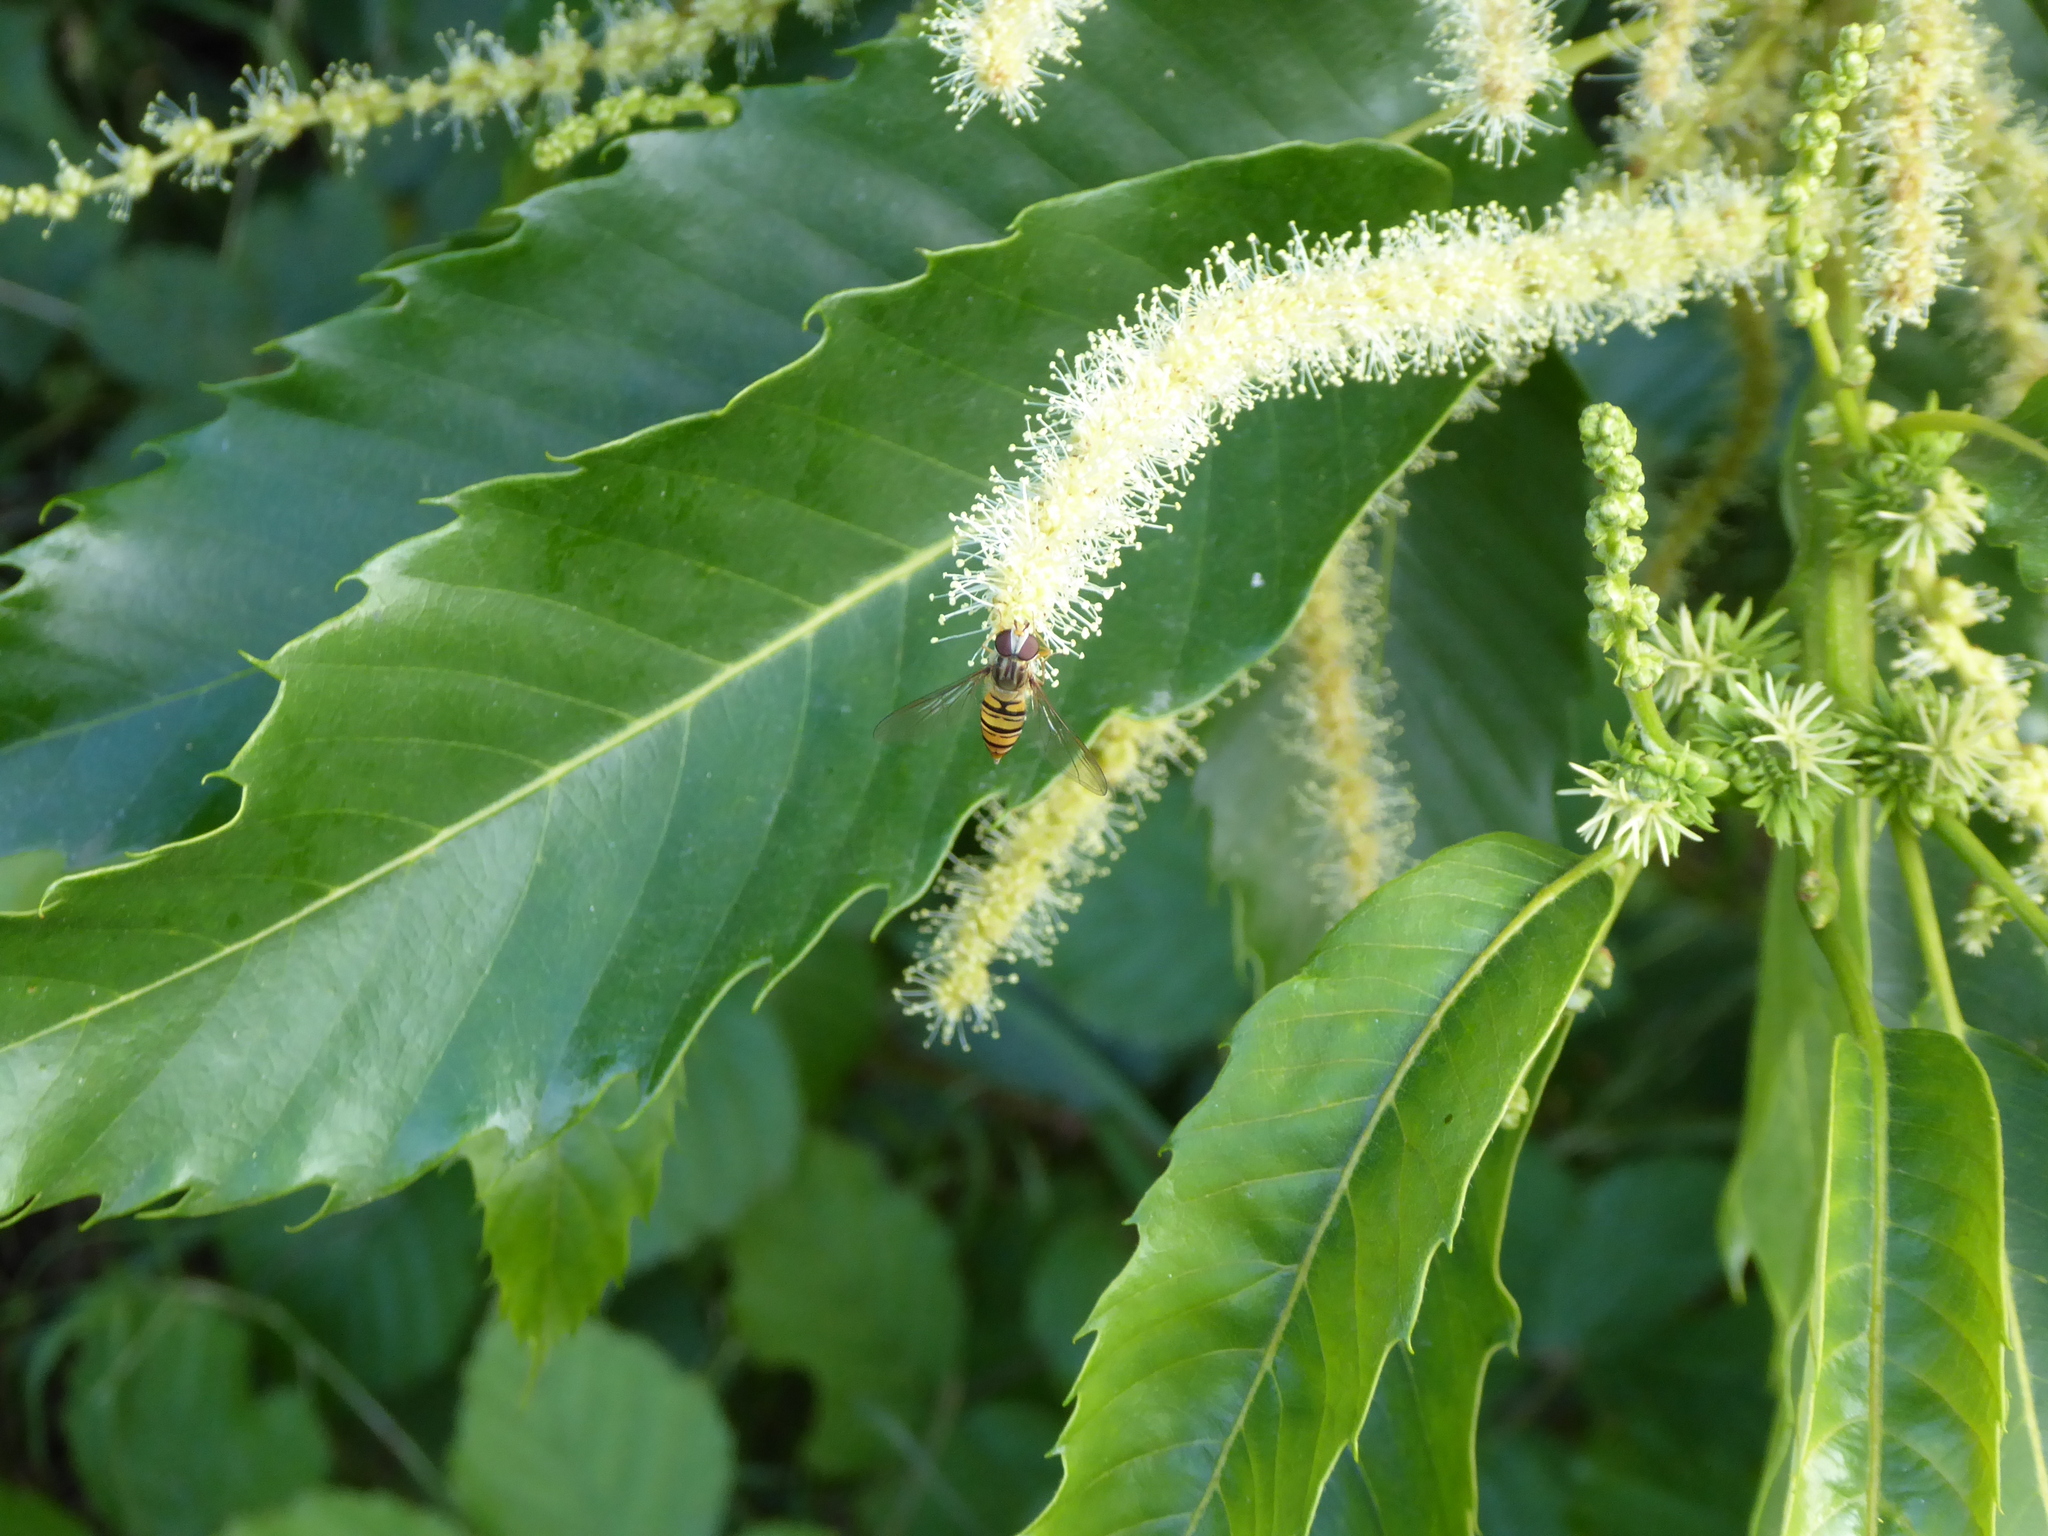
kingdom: Animalia
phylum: Arthropoda
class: Insecta
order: Diptera
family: Syrphidae
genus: Episyrphus
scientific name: Episyrphus balteatus
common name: Marmalade hoverfly
